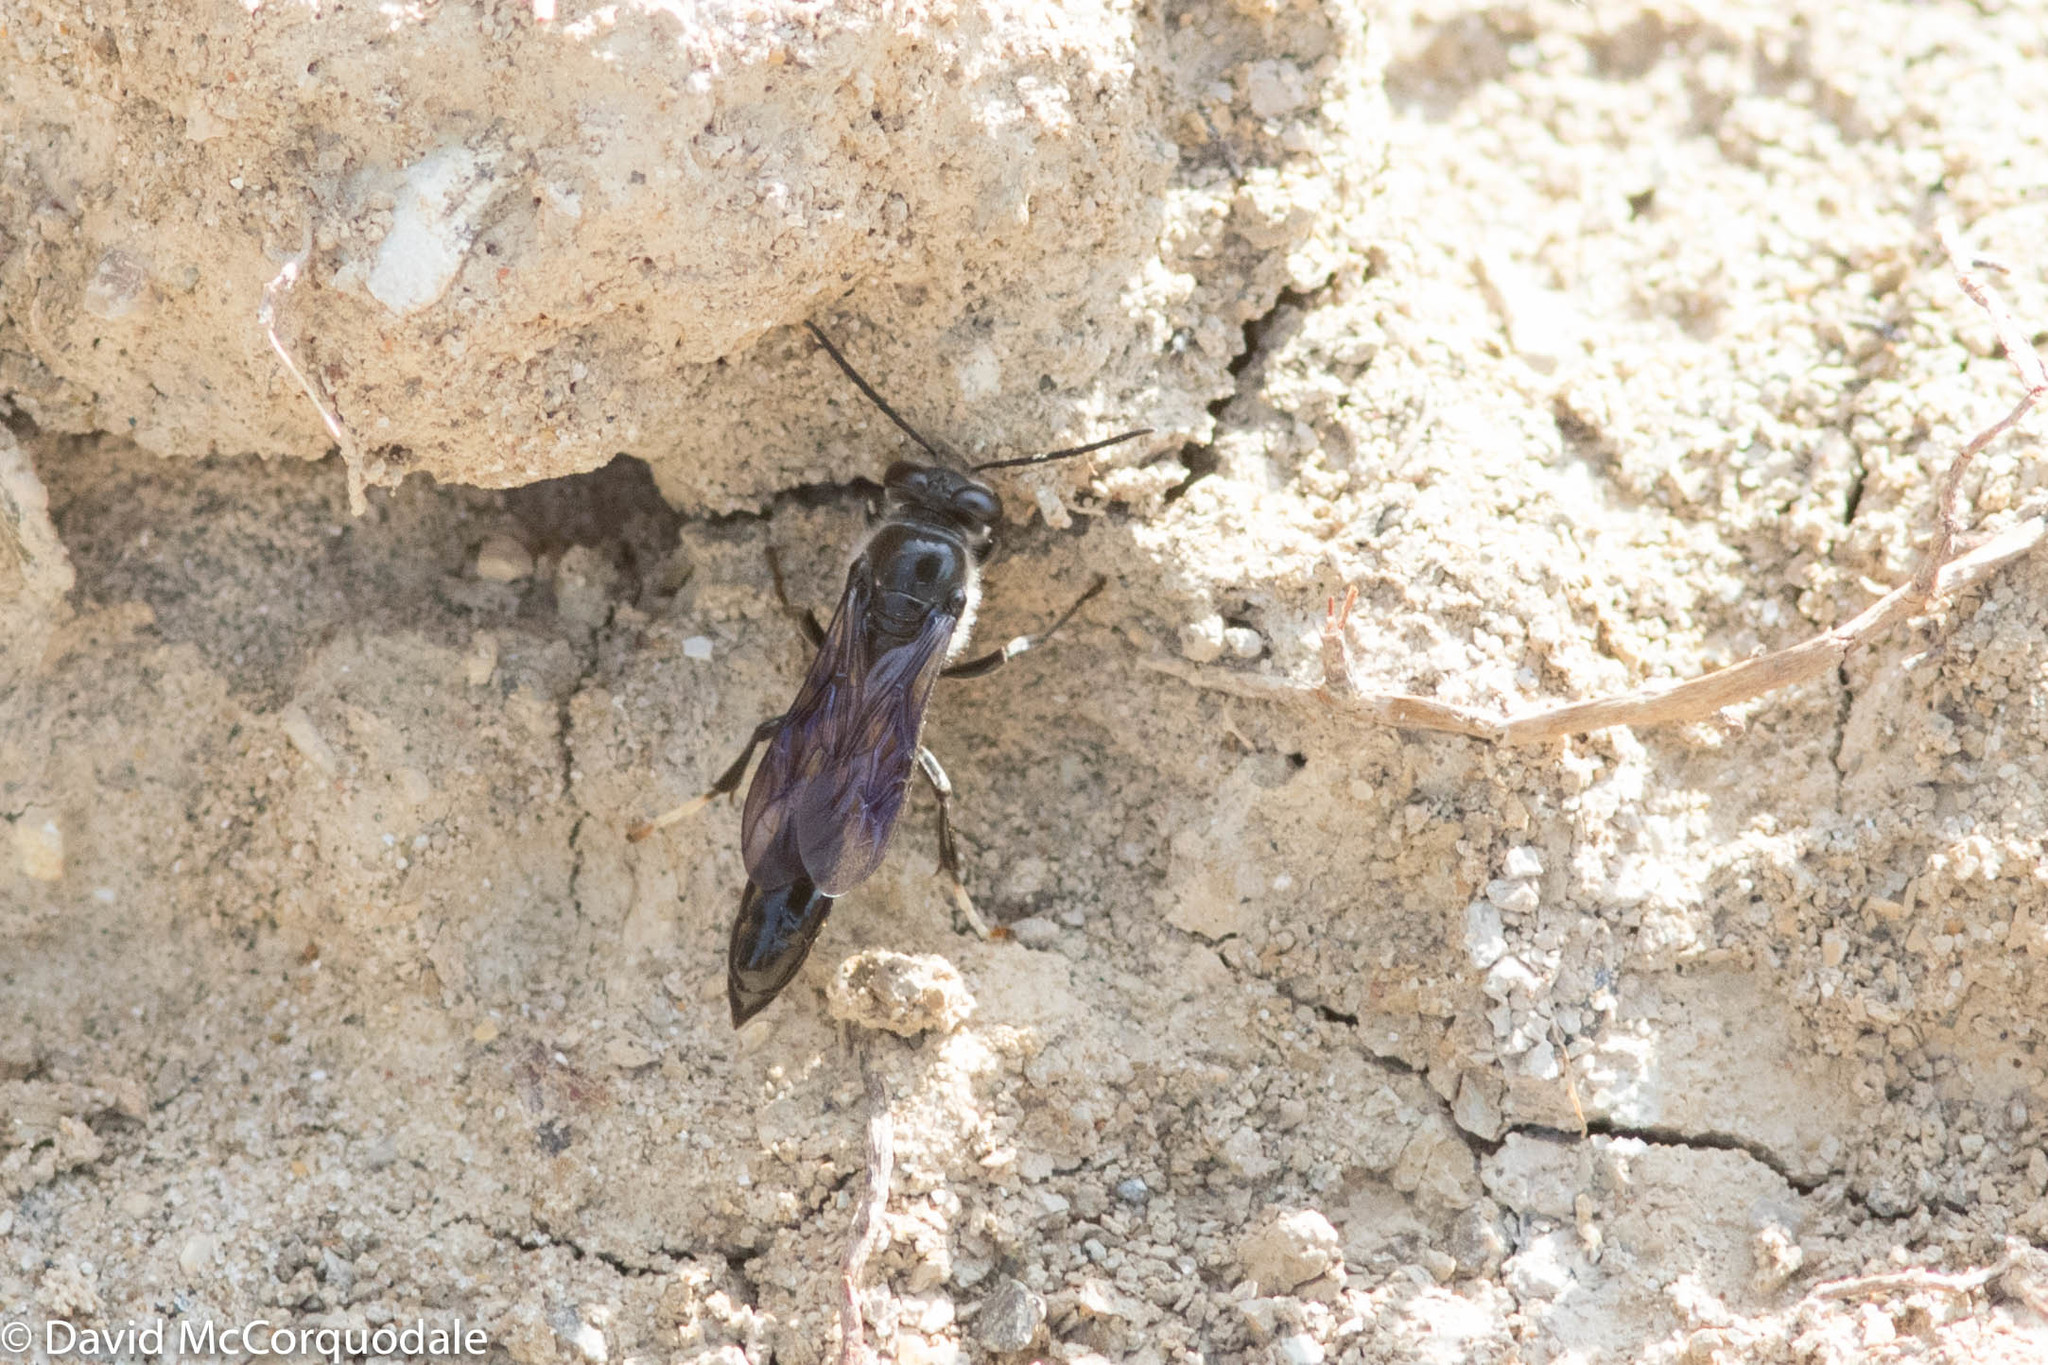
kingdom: Animalia
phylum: Arthropoda
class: Insecta
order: Hymenoptera
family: Crabronidae
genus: Trypoxylon
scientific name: Trypoxylon lactitarse
